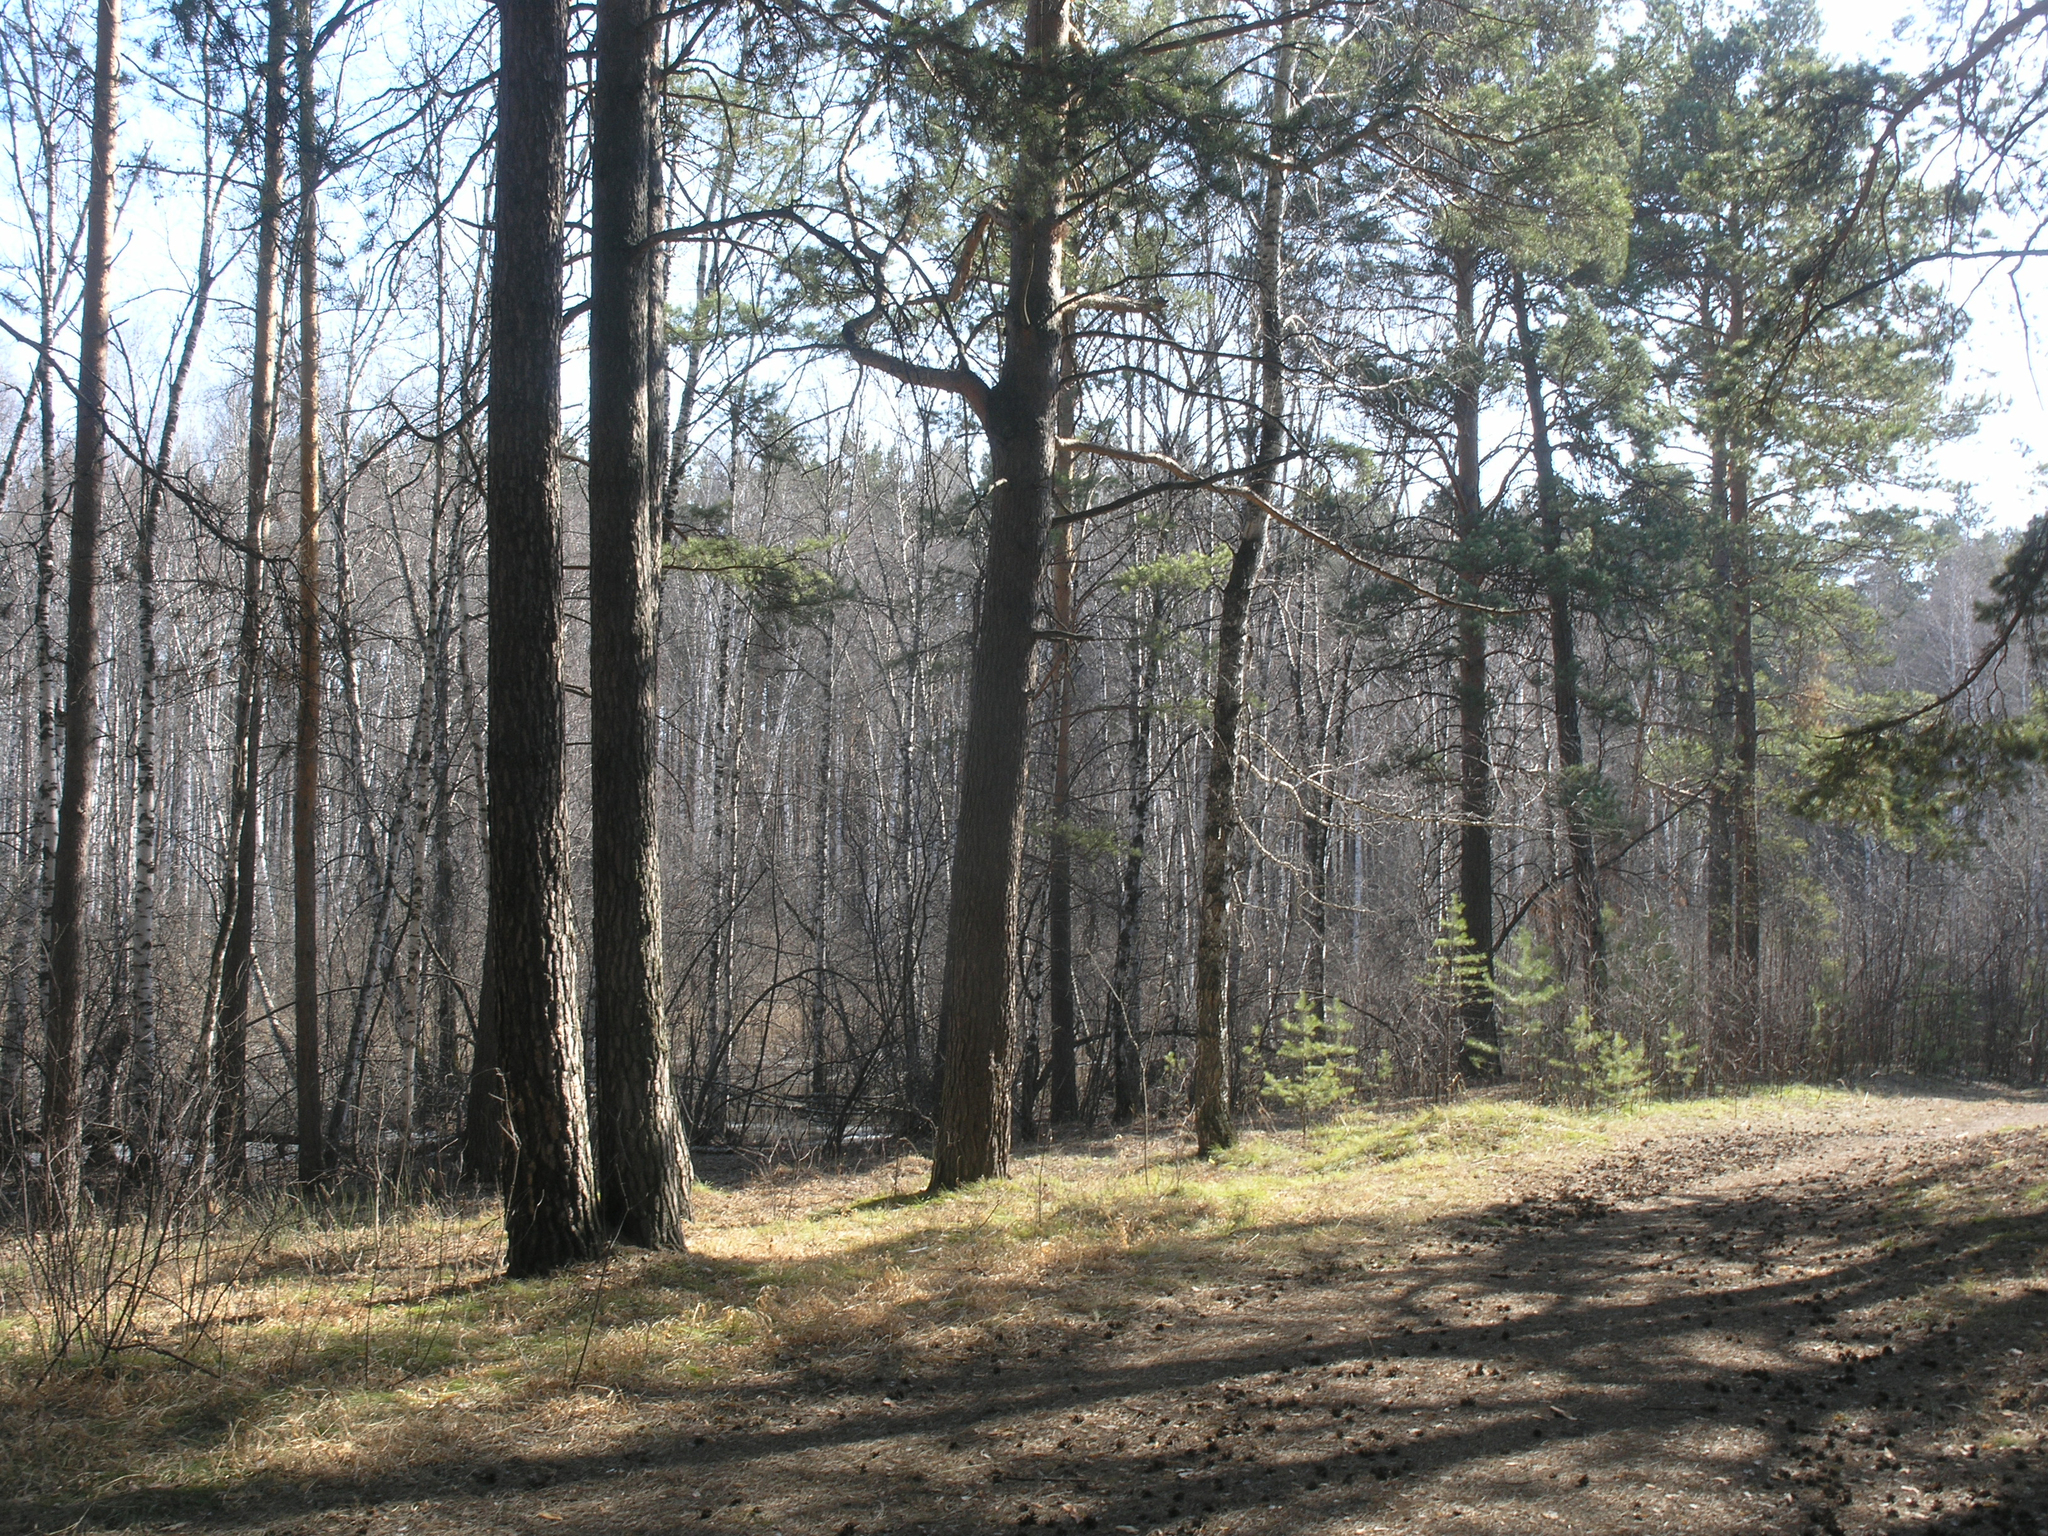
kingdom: Plantae
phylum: Tracheophyta
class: Pinopsida
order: Pinales
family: Pinaceae
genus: Pinus
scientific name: Pinus sylvestris
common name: Scots pine
